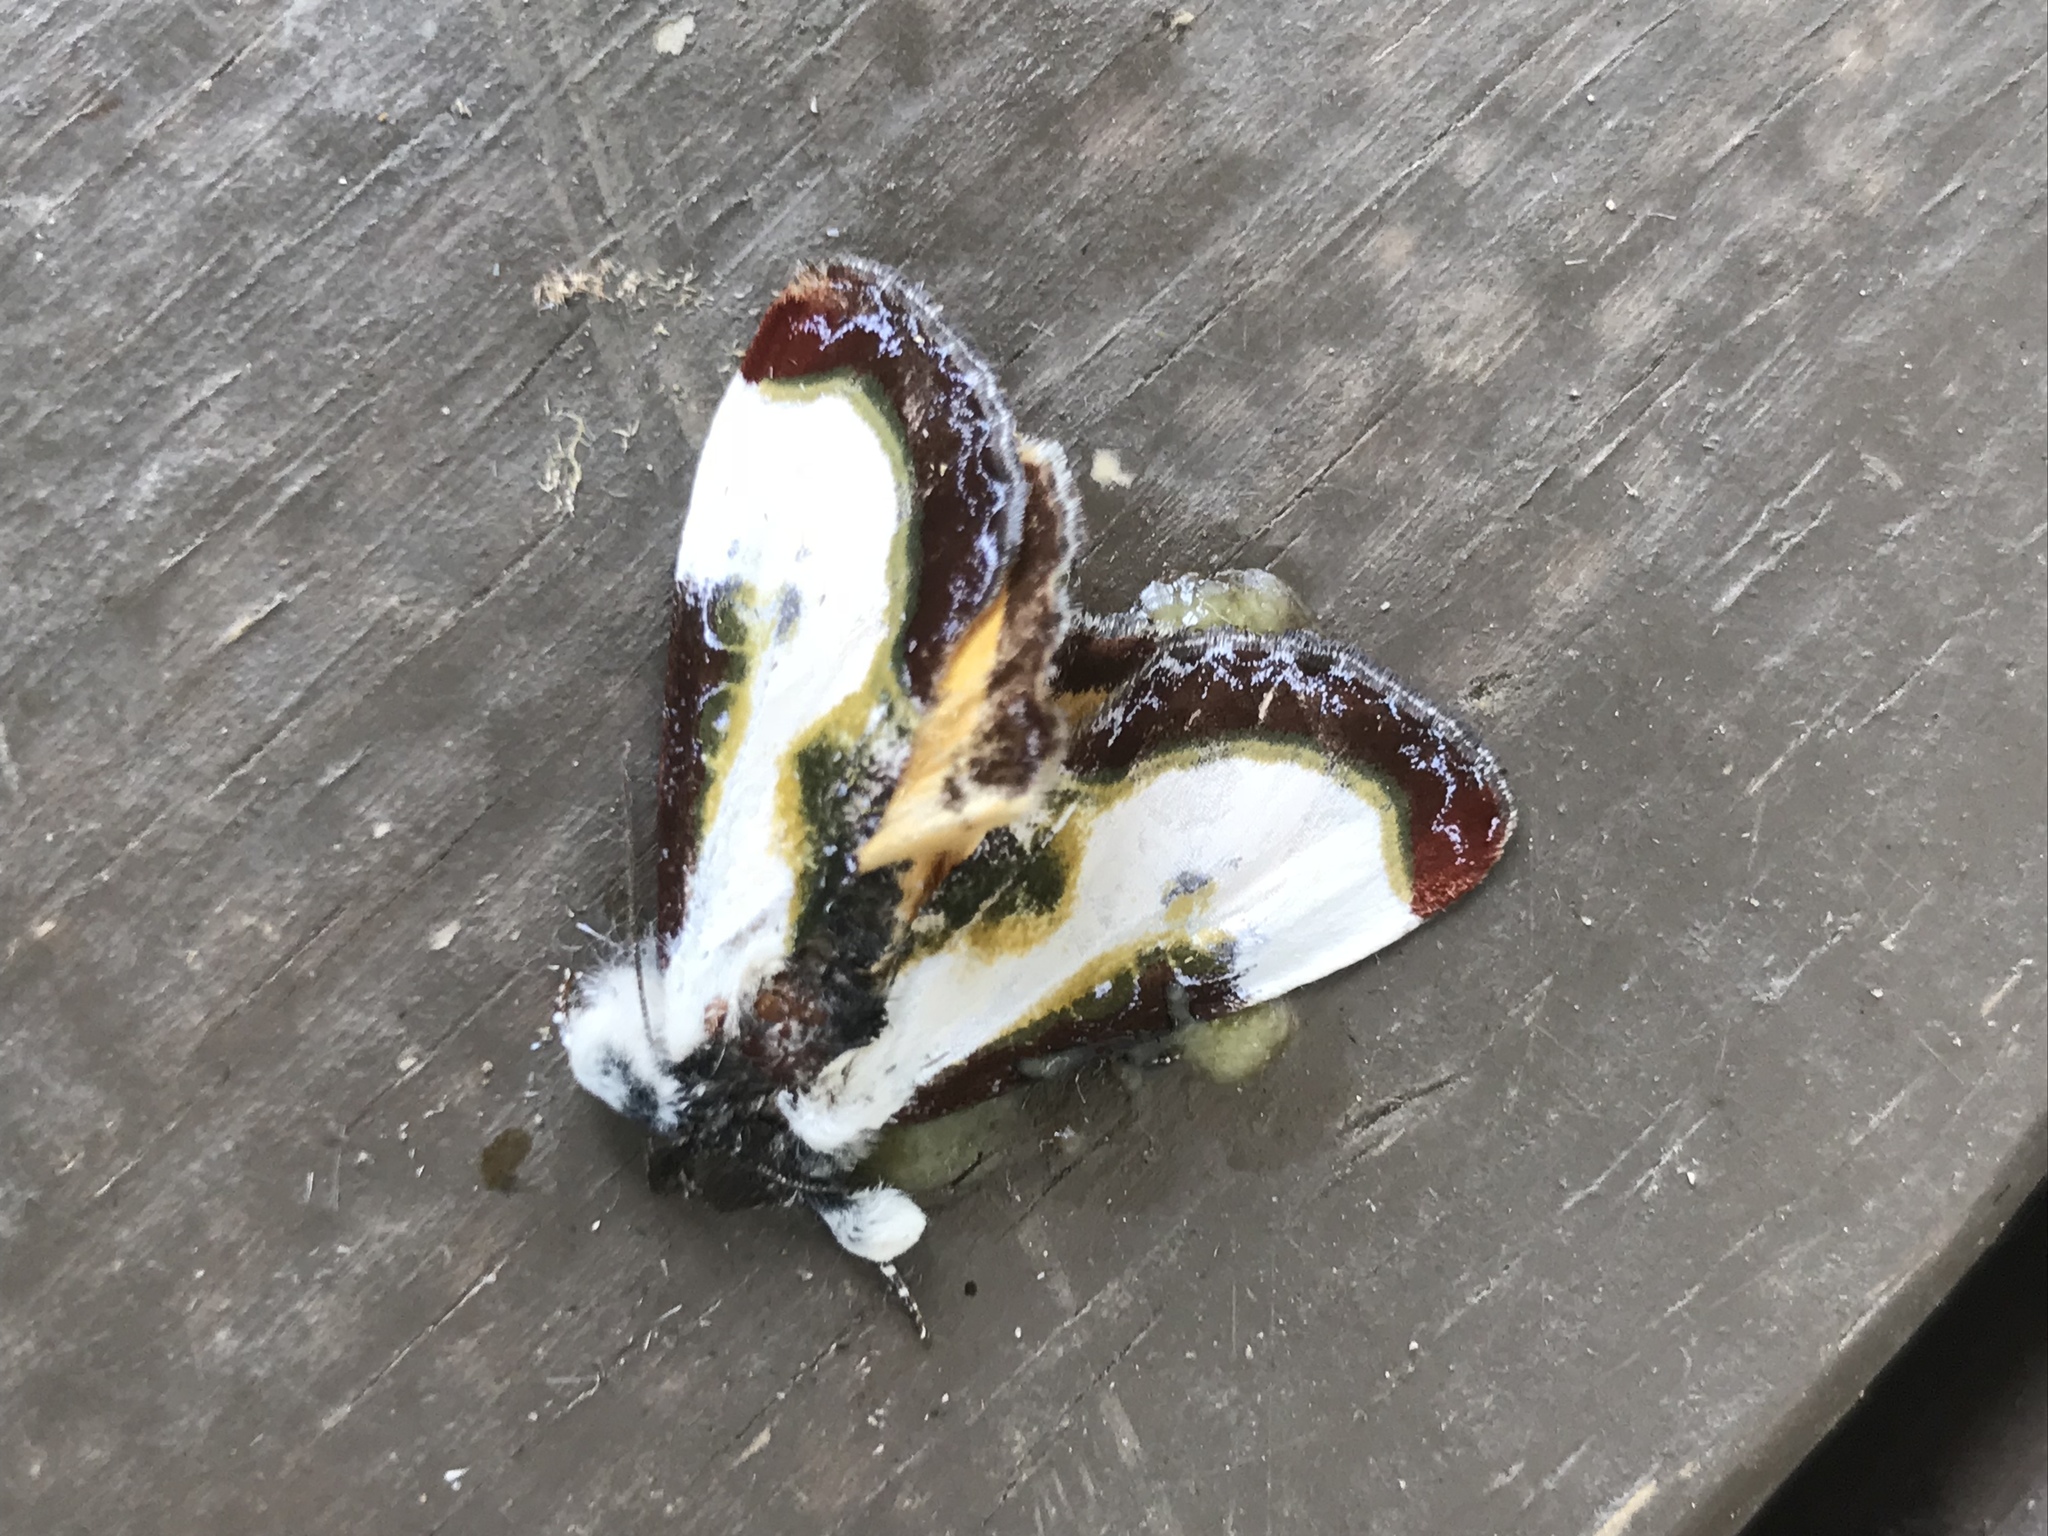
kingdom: Animalia
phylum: Arthropoda
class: Insecta
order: Lepidoptera
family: Noctuidae
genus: Eudryas
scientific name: Eudryas grata
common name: Beautiful wood-nymph
